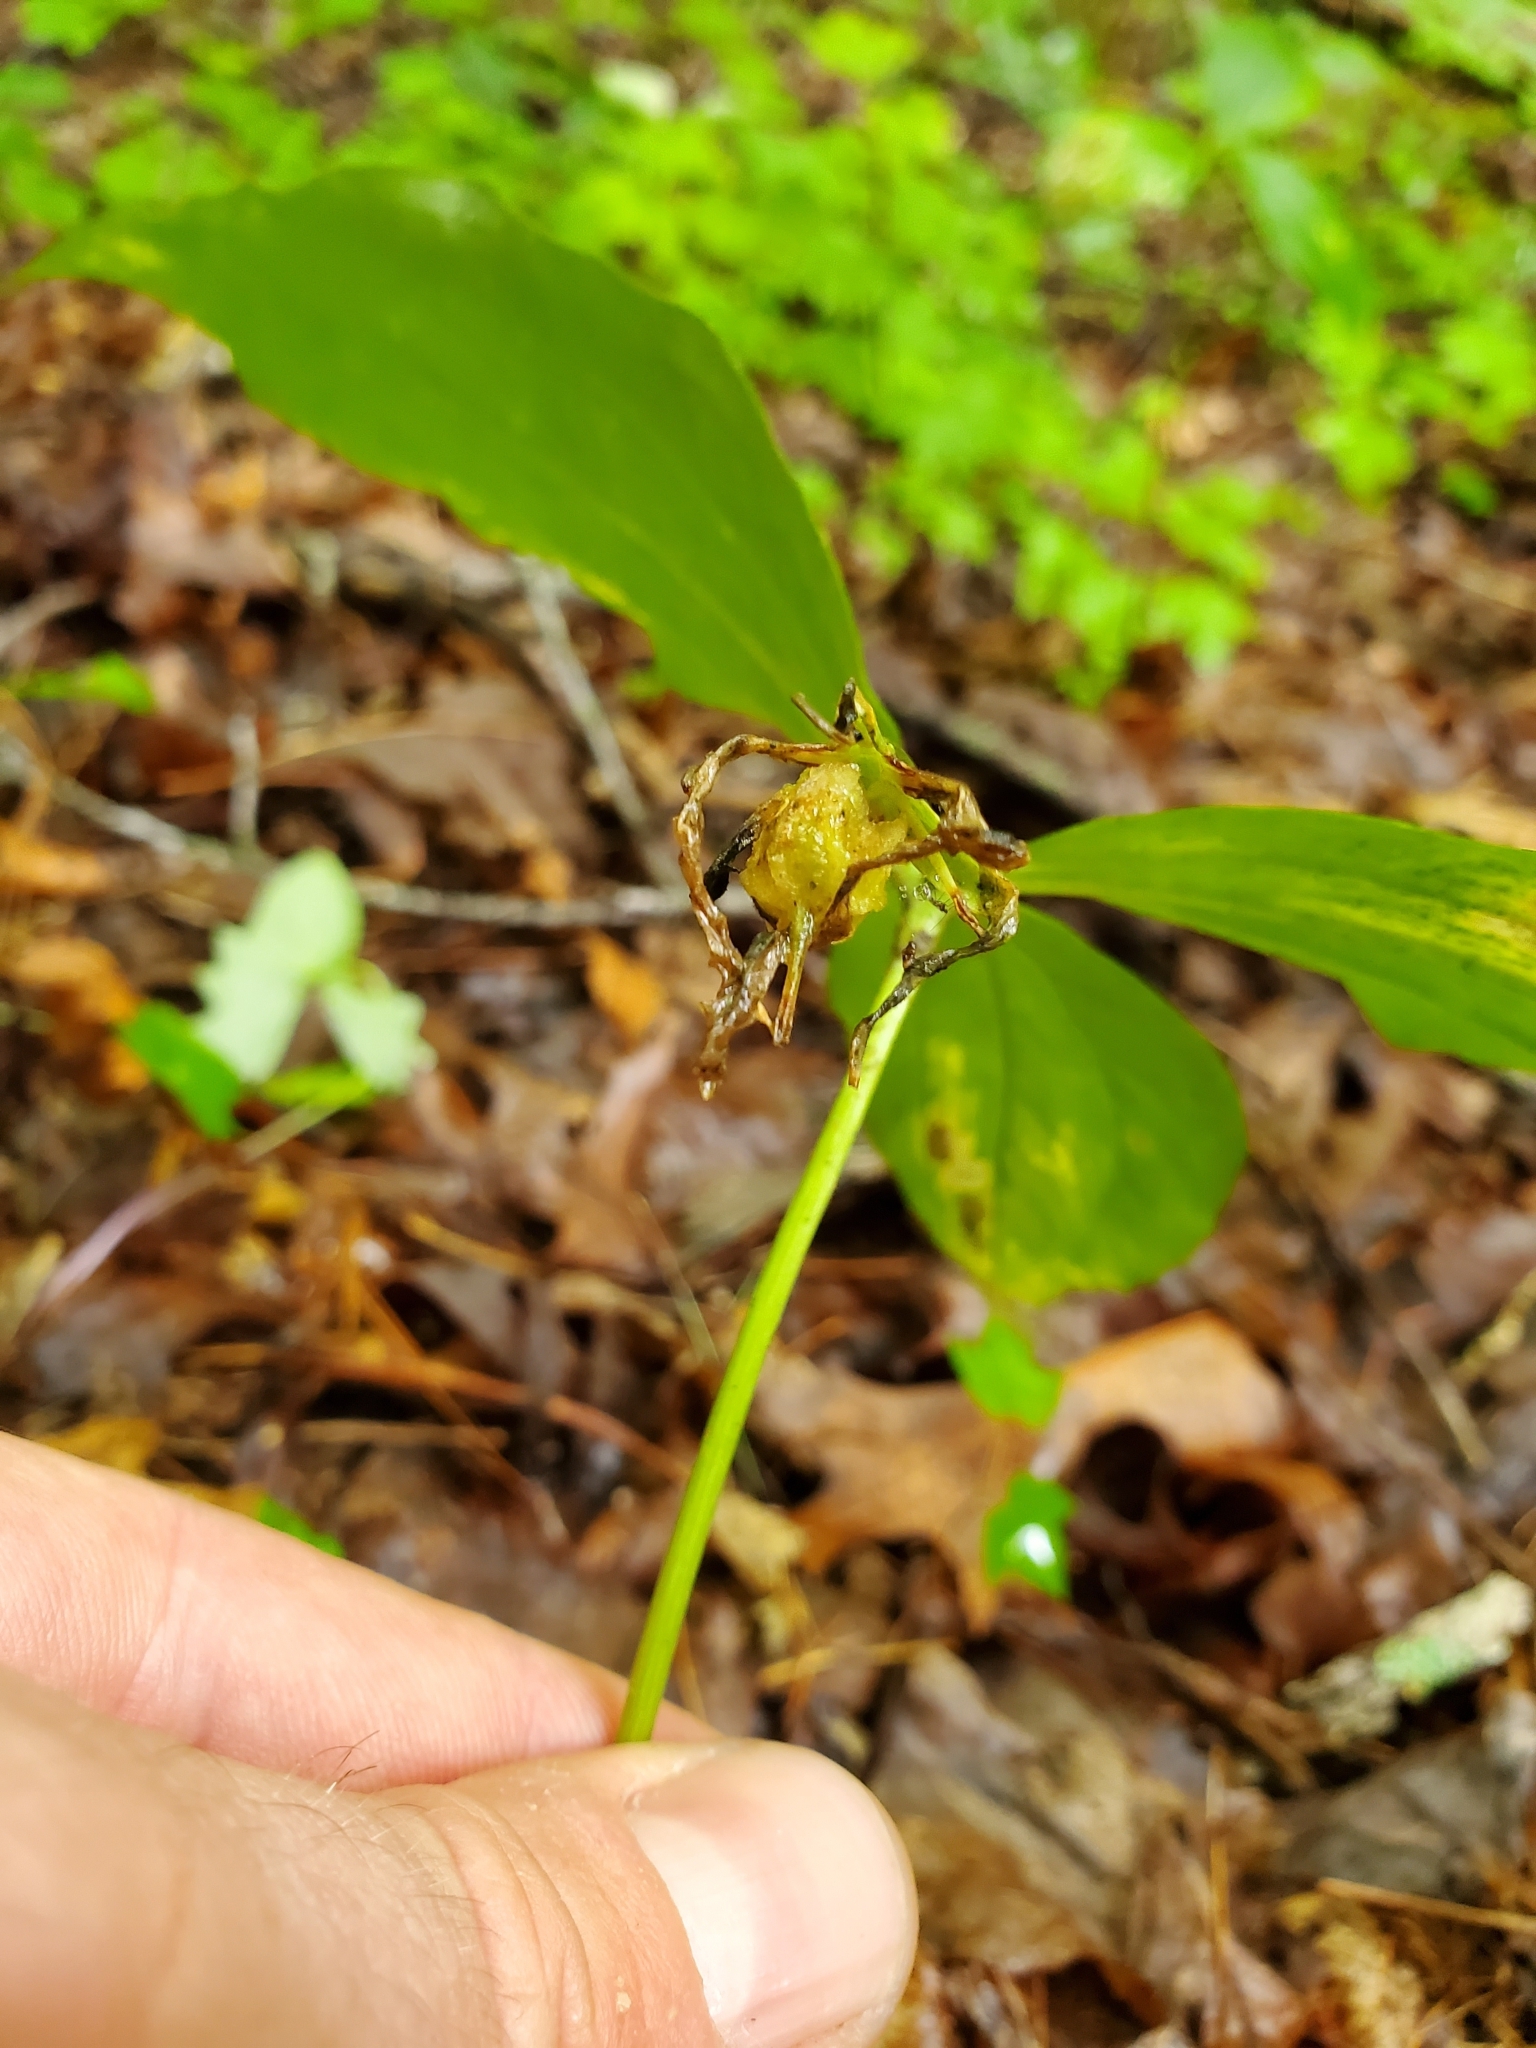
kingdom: Plantae
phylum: Tracheophyta
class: Liliopsida
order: Liliales
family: Melanthiaceae
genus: Trillium
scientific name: Trillium catesbaei
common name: Bashful trillium
